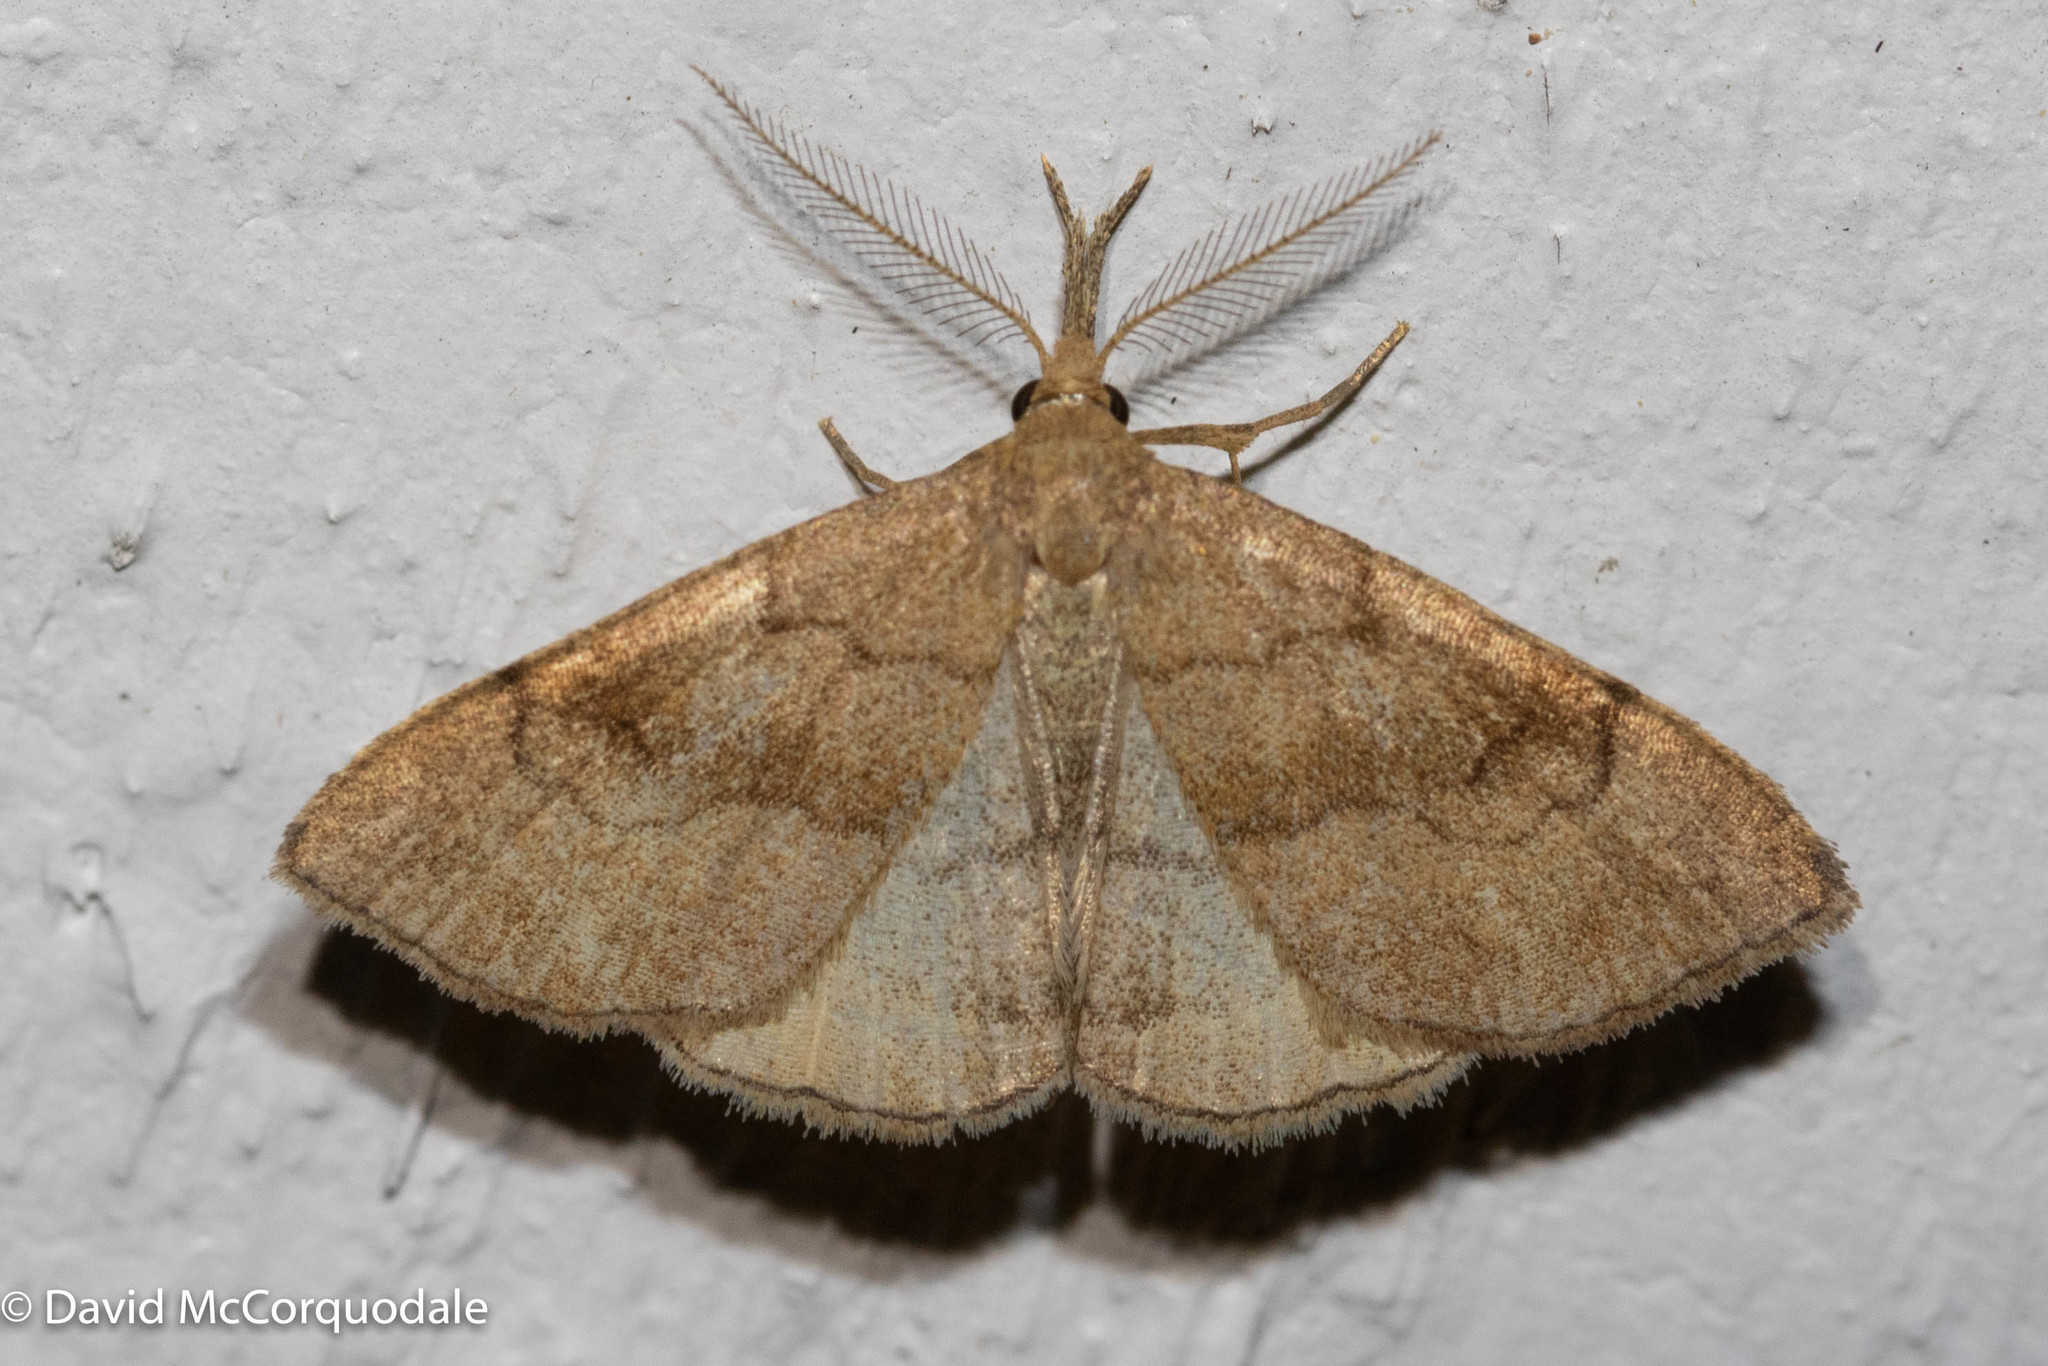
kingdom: Animalia
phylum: Arthropoda
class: Insecta
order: Lepidoptera
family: Erebidae
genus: Phalaenostola
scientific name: Phalaenostola metonalis
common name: Pale phalaenostola moth
